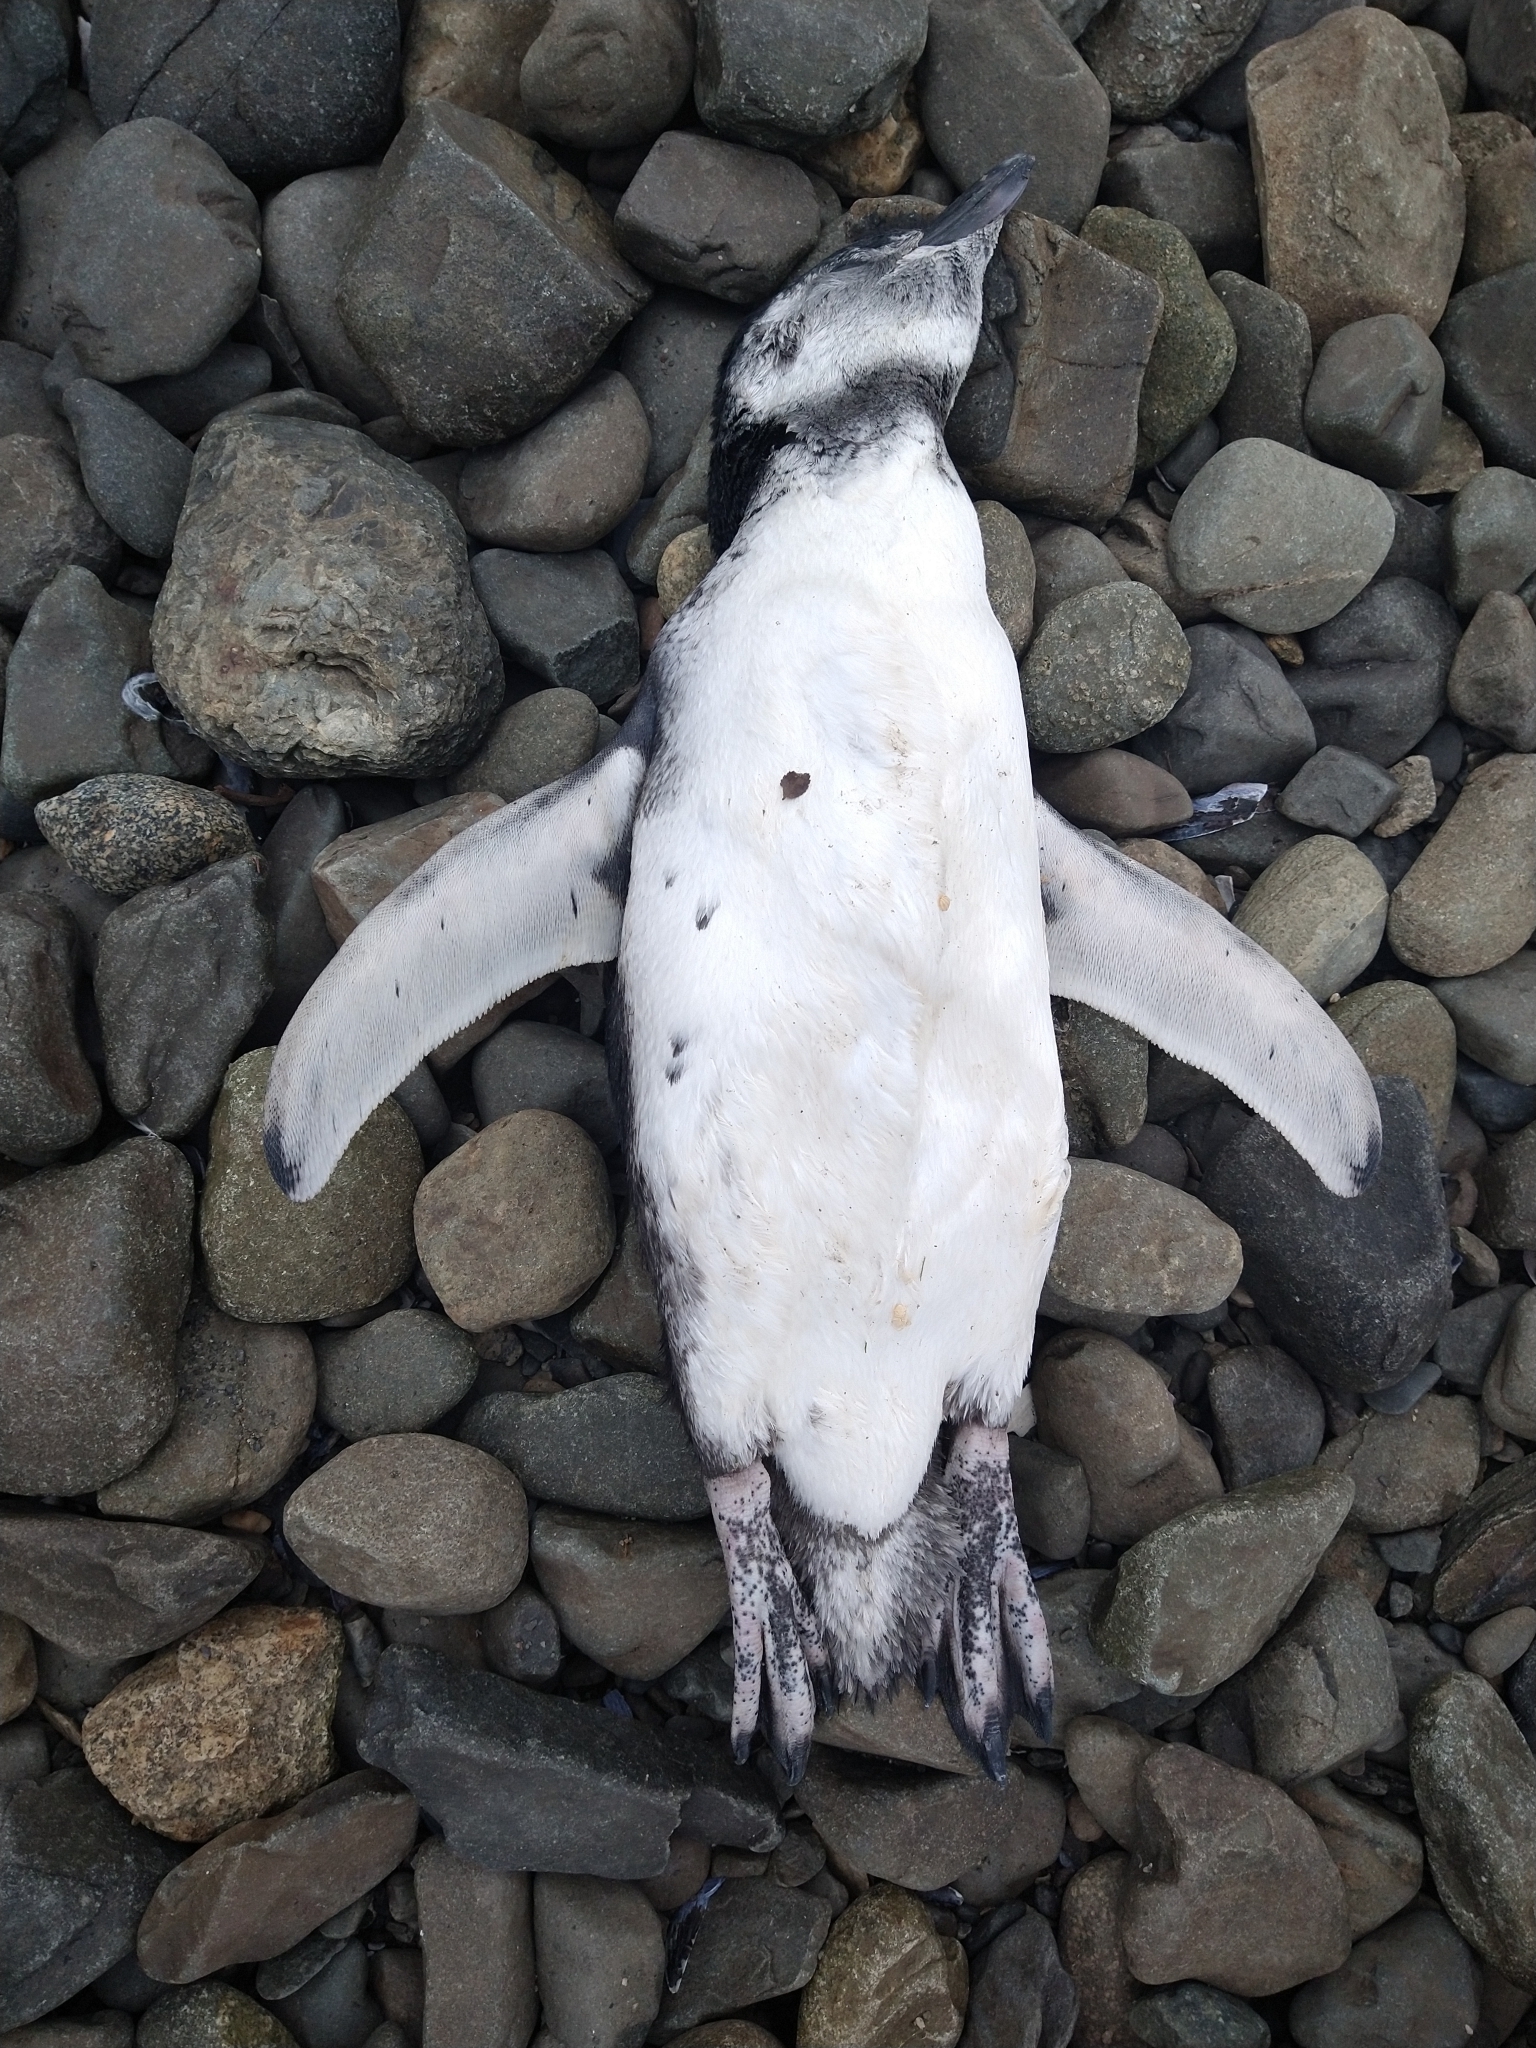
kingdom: Animalia
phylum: Chordata
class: Aves
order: Sphenisciformes
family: Spheniscidae
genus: Spheniscus
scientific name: Spheniscus magellanicus
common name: Magellanic penguin
